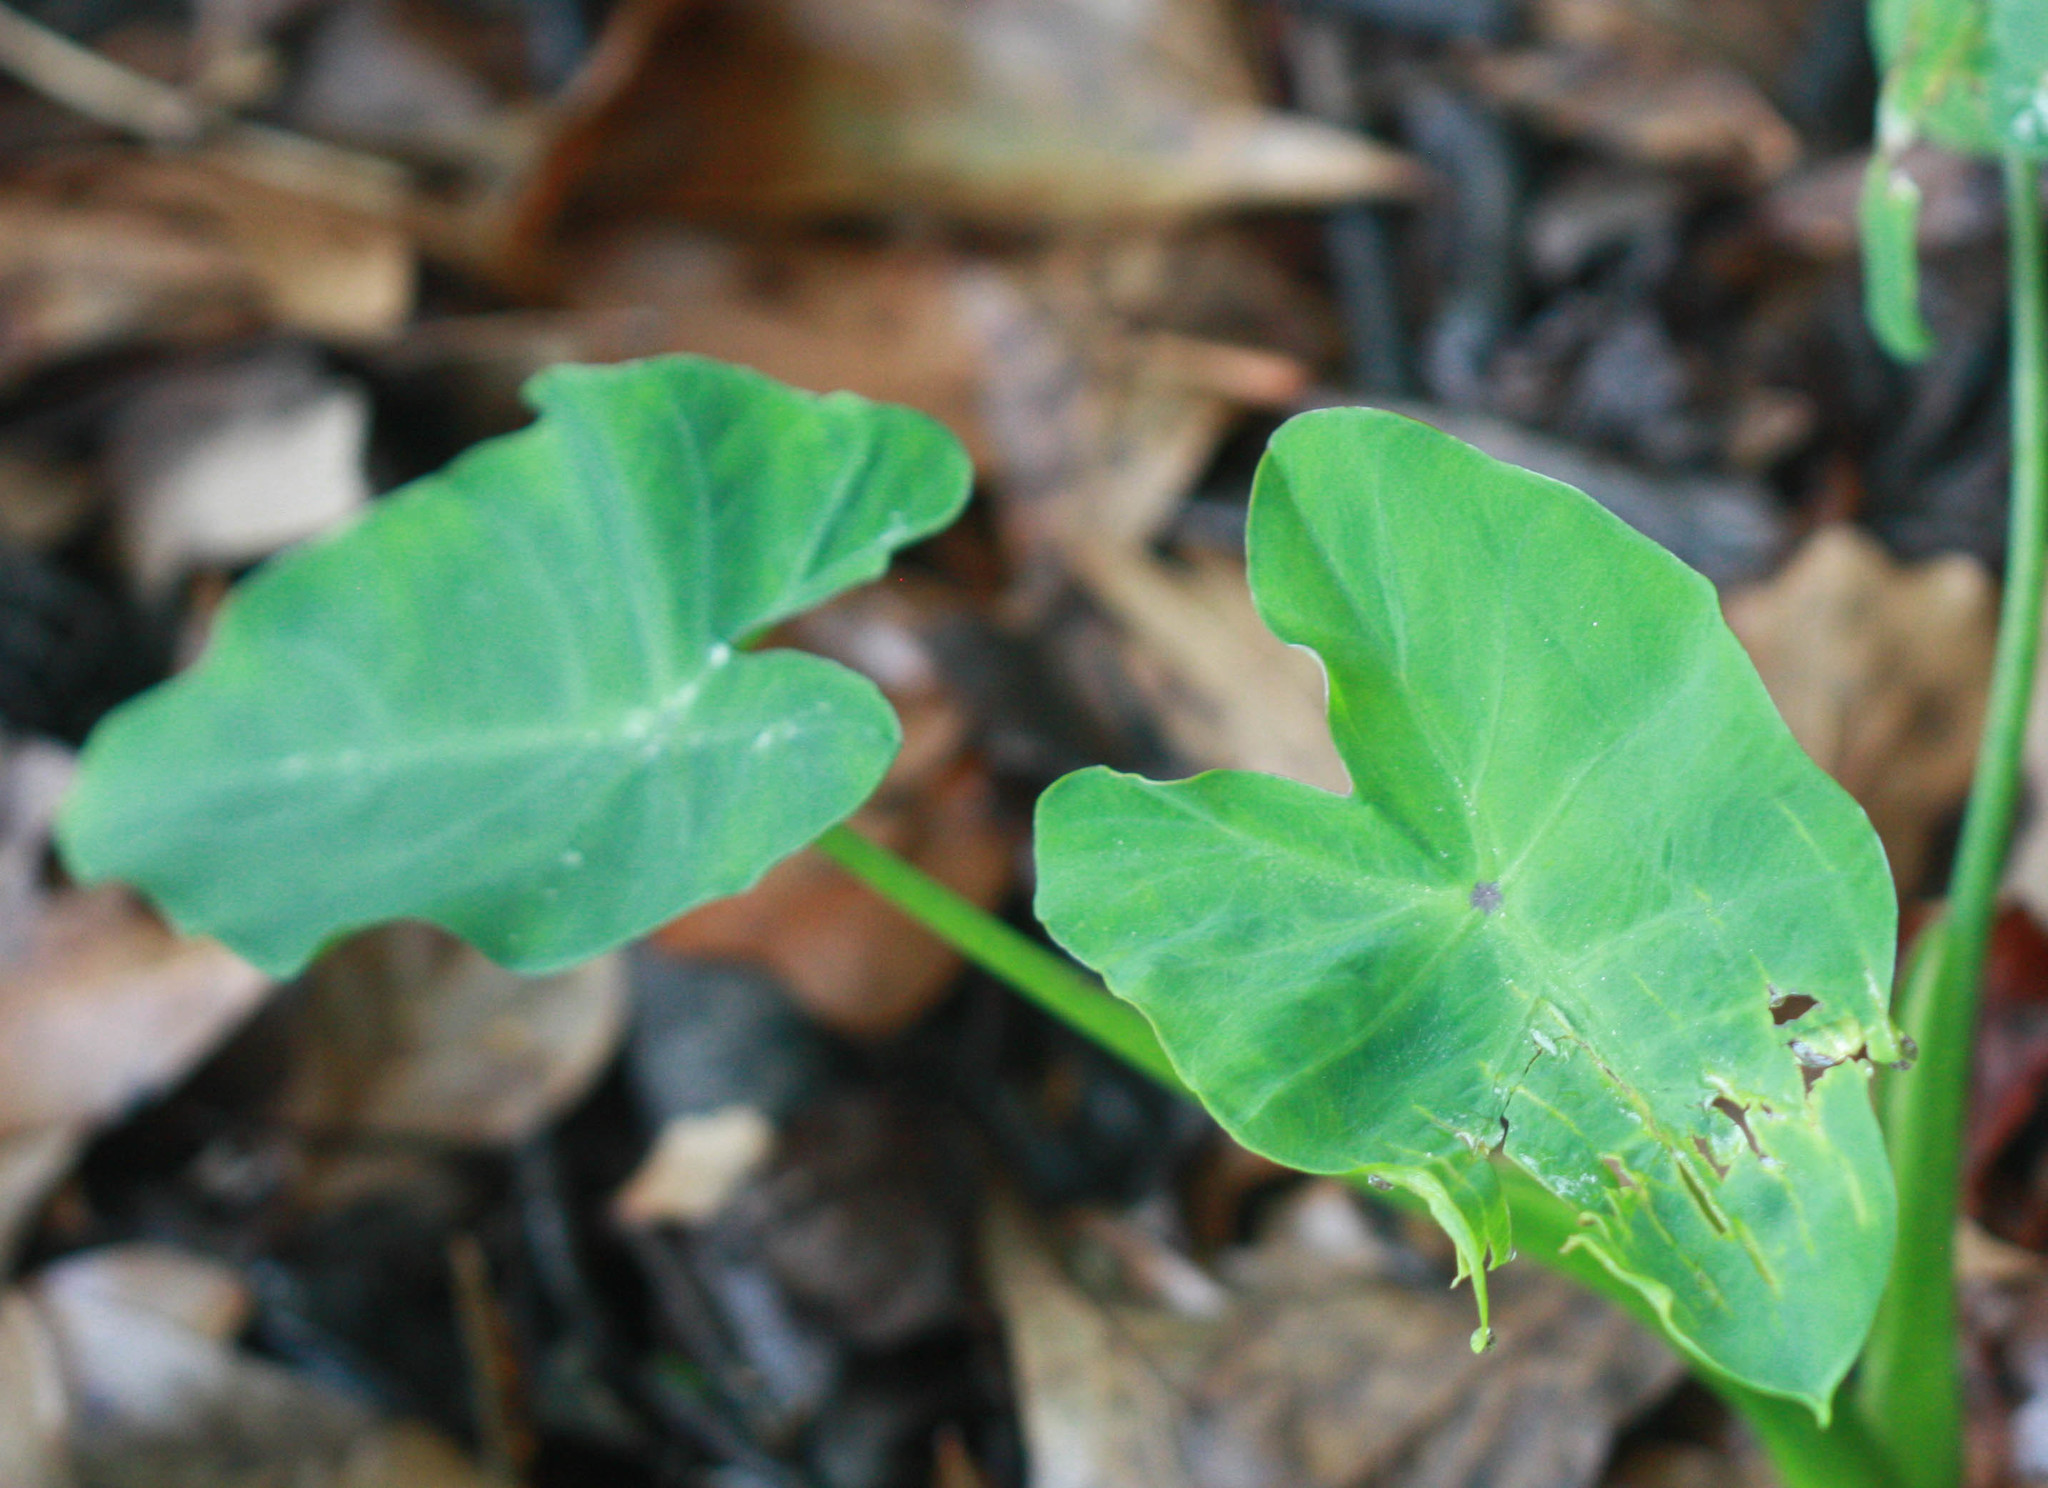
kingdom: Plantae
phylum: Tracheophyta
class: Liliopsida
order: Alismatales
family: Araceae
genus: Colocasia
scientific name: Colocasia esculenta
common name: Taro
